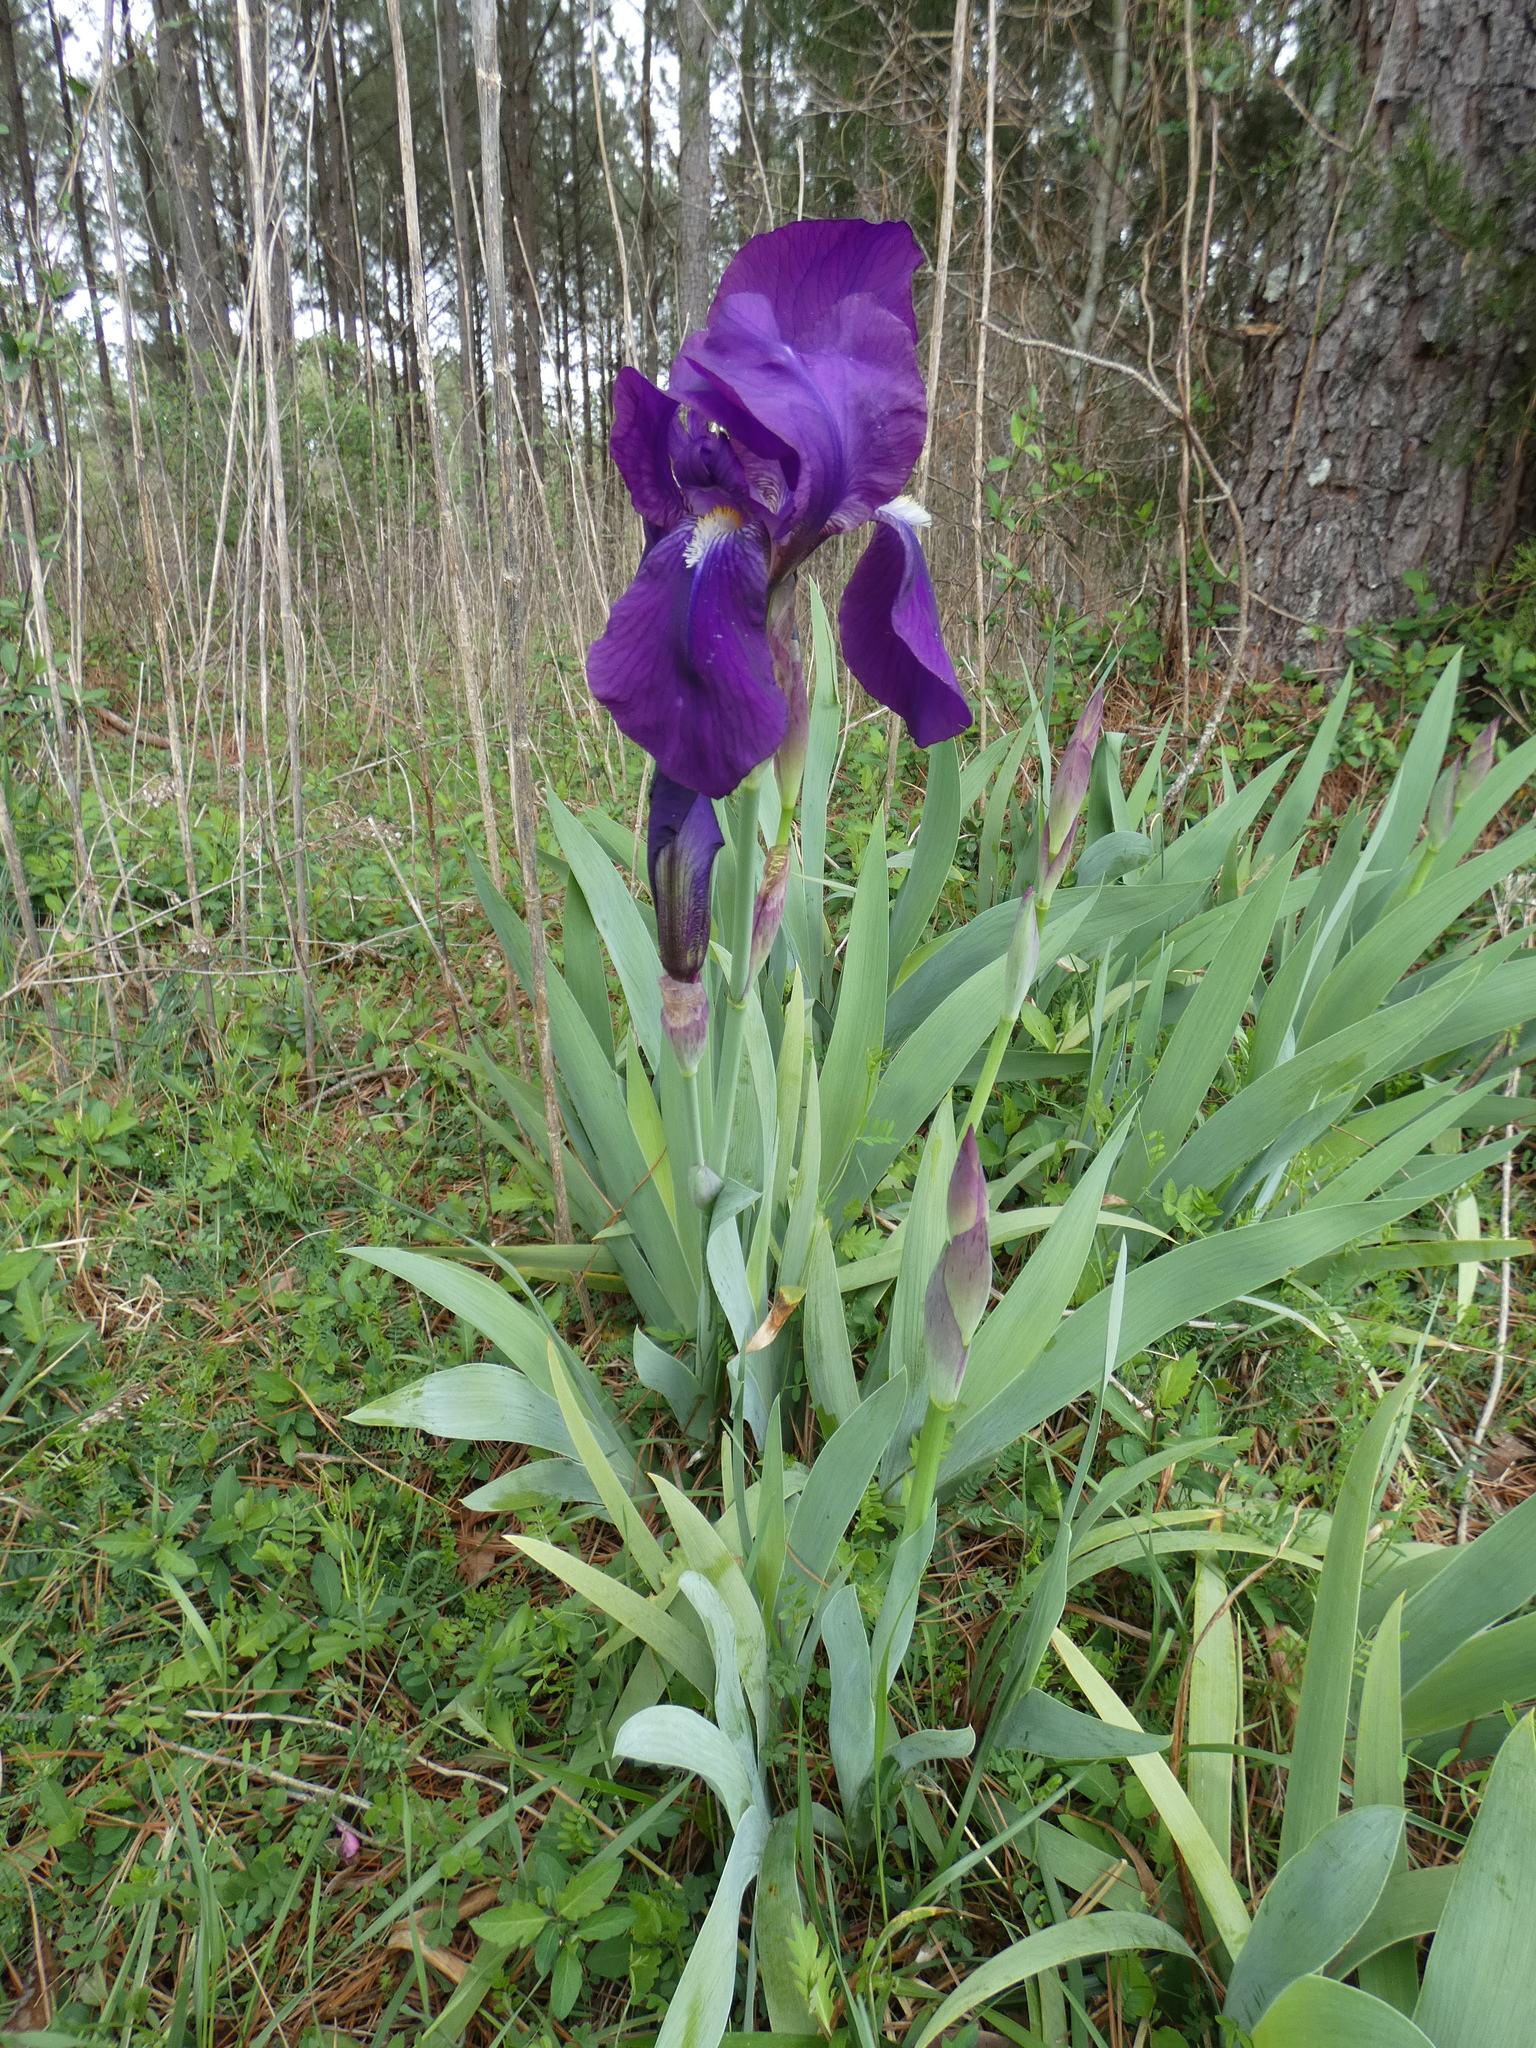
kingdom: Plantae
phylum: Tracheophyta
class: Liliopsida
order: Asparagales
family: Iridaceae
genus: Iris
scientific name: Iris germanica
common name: German iris
